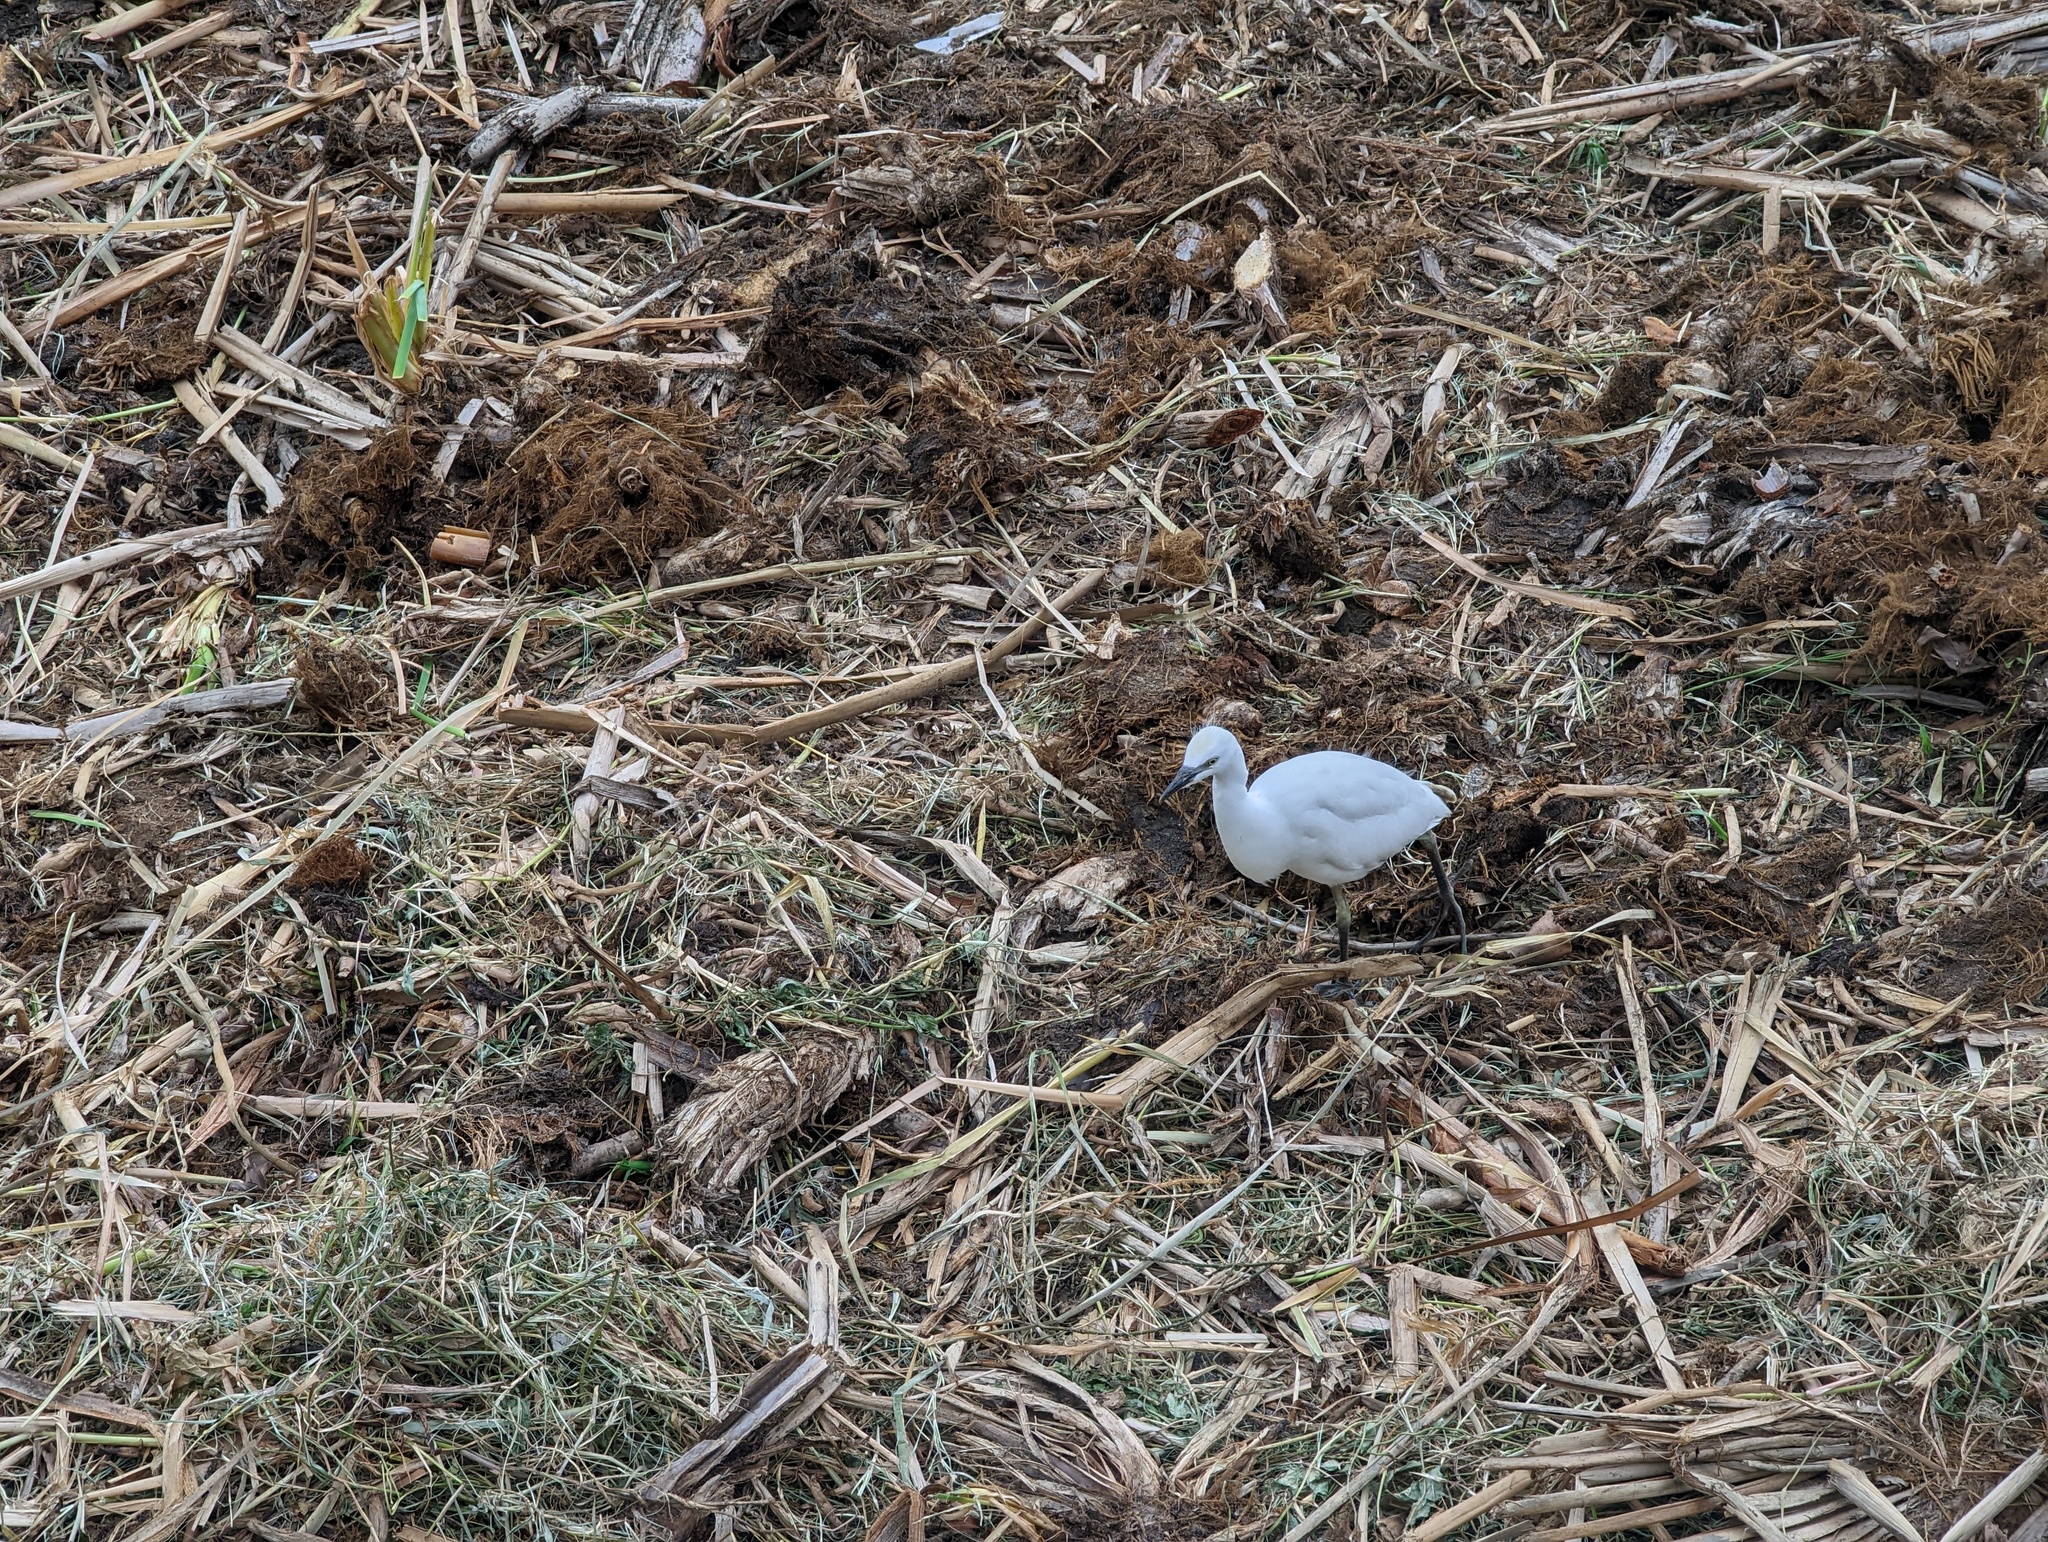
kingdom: Animalia
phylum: Chordata
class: Aves
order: Pelecaniformes
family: Ardeidae
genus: Bubulcus
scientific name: Bubulcus ibis
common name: Cattle egret
